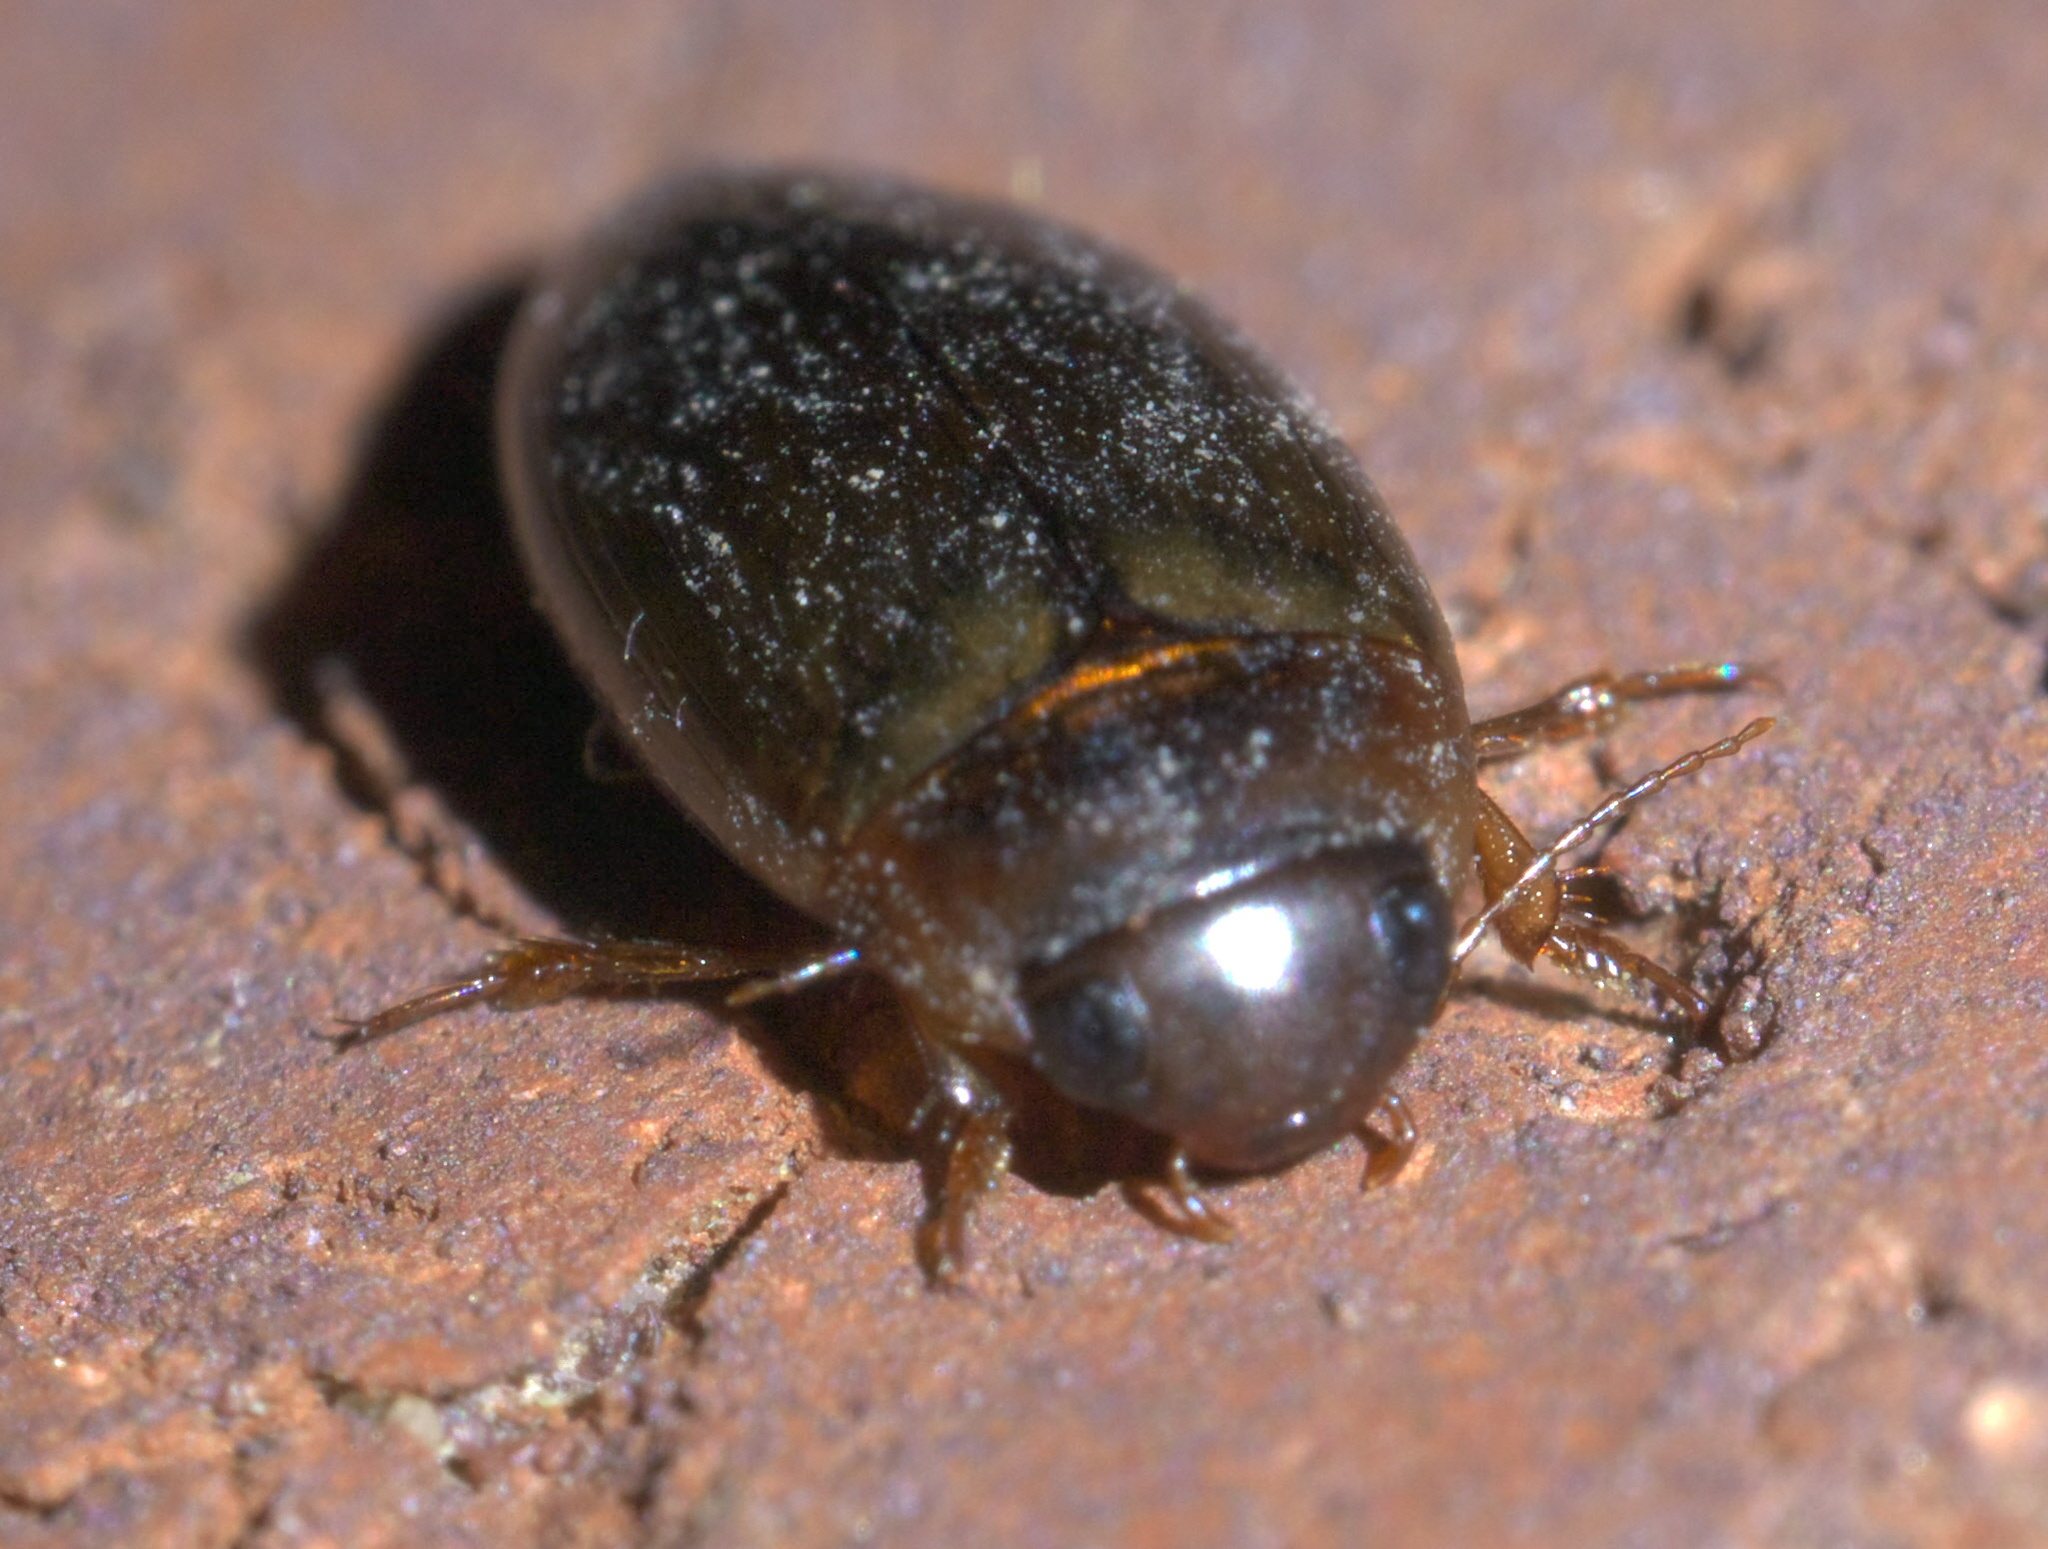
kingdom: Animalia
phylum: Arthropoda
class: Insecta
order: Coleoptera
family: Dytiscidae
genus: Copelatus
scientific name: Copelatus chevrolati
